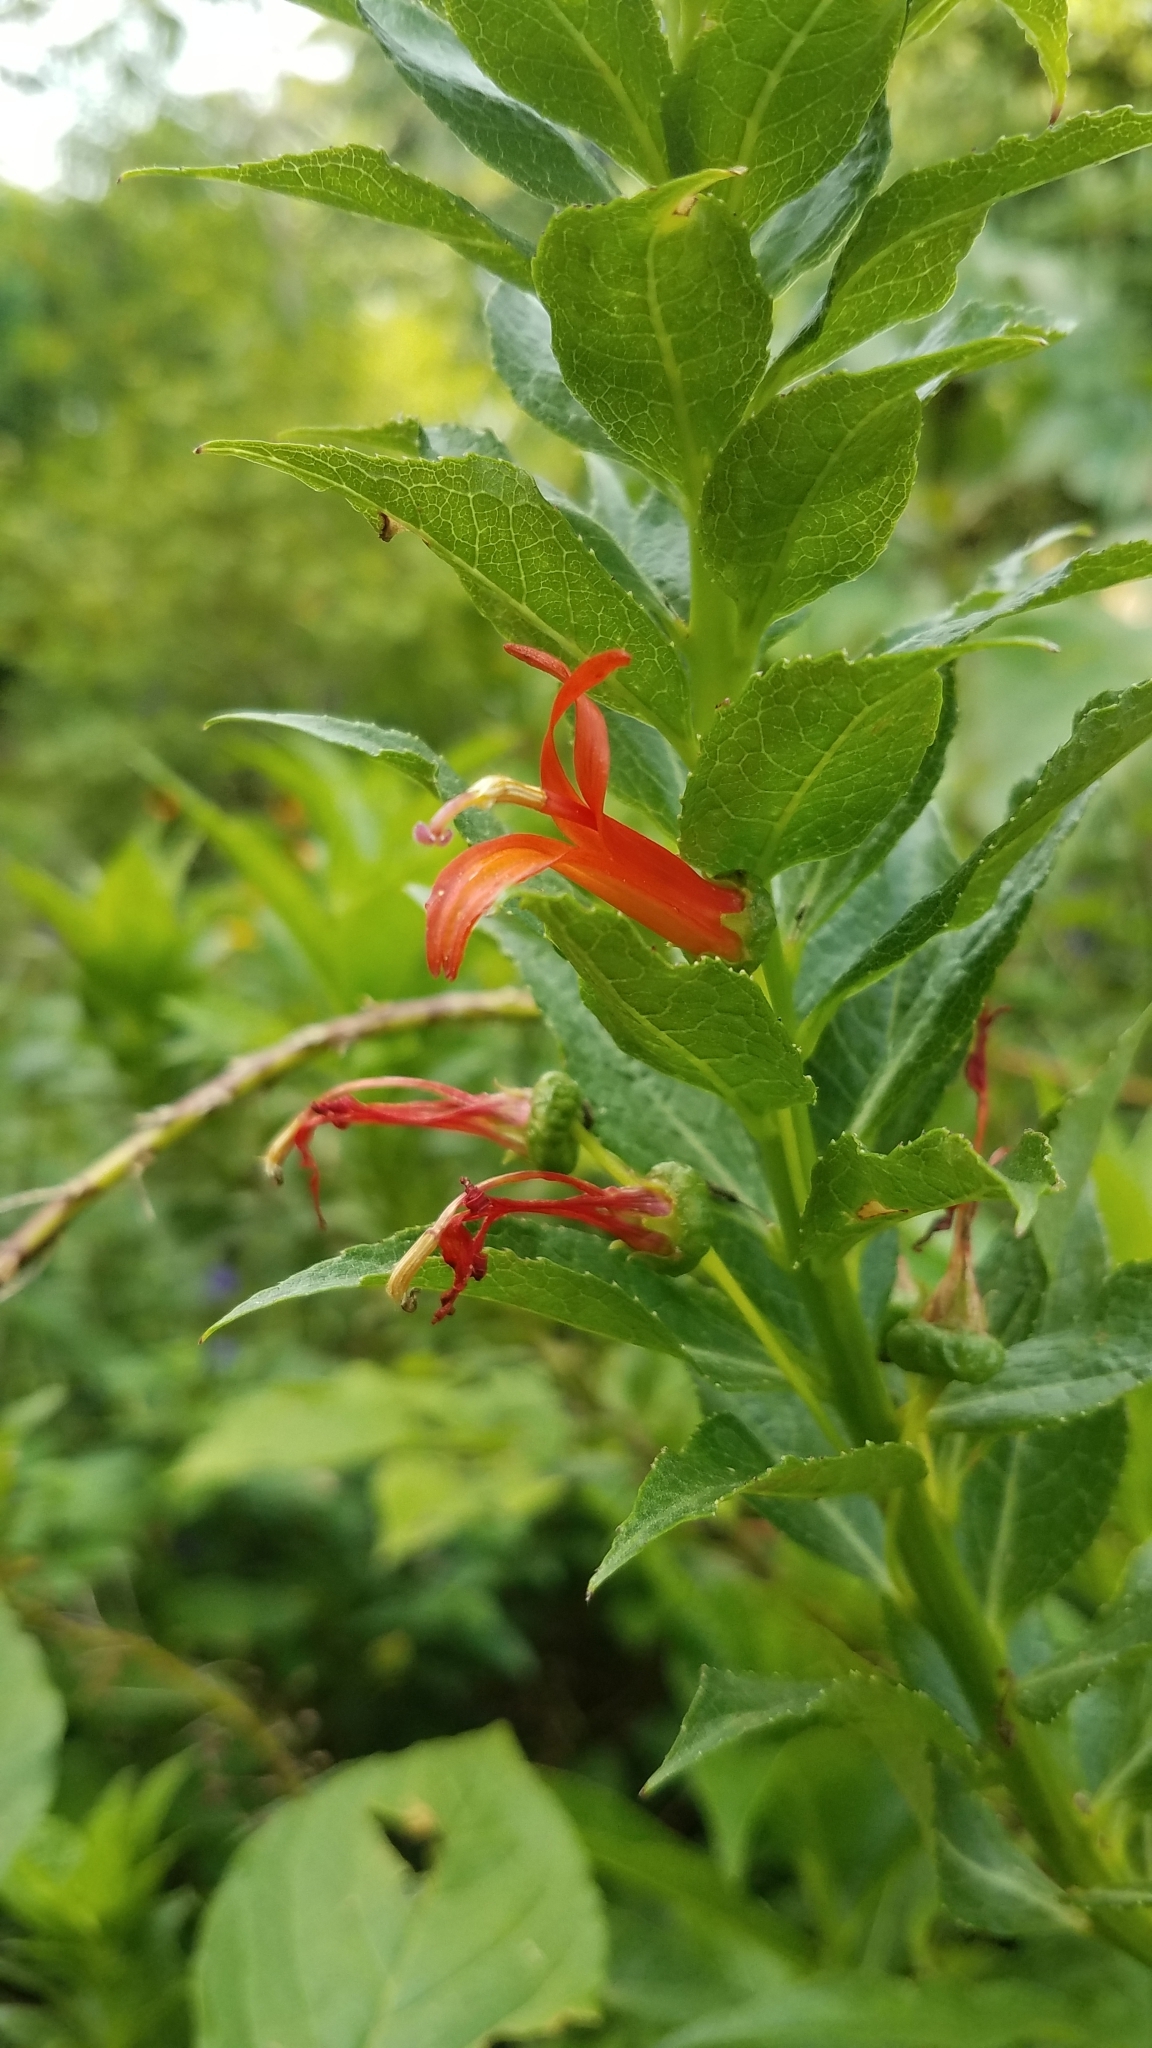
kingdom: Plantae
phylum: Tracheophyta
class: Magnoliopsida
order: Asterales
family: Campanulaceae
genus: Lobelia
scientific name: Lobelia laxiflora
